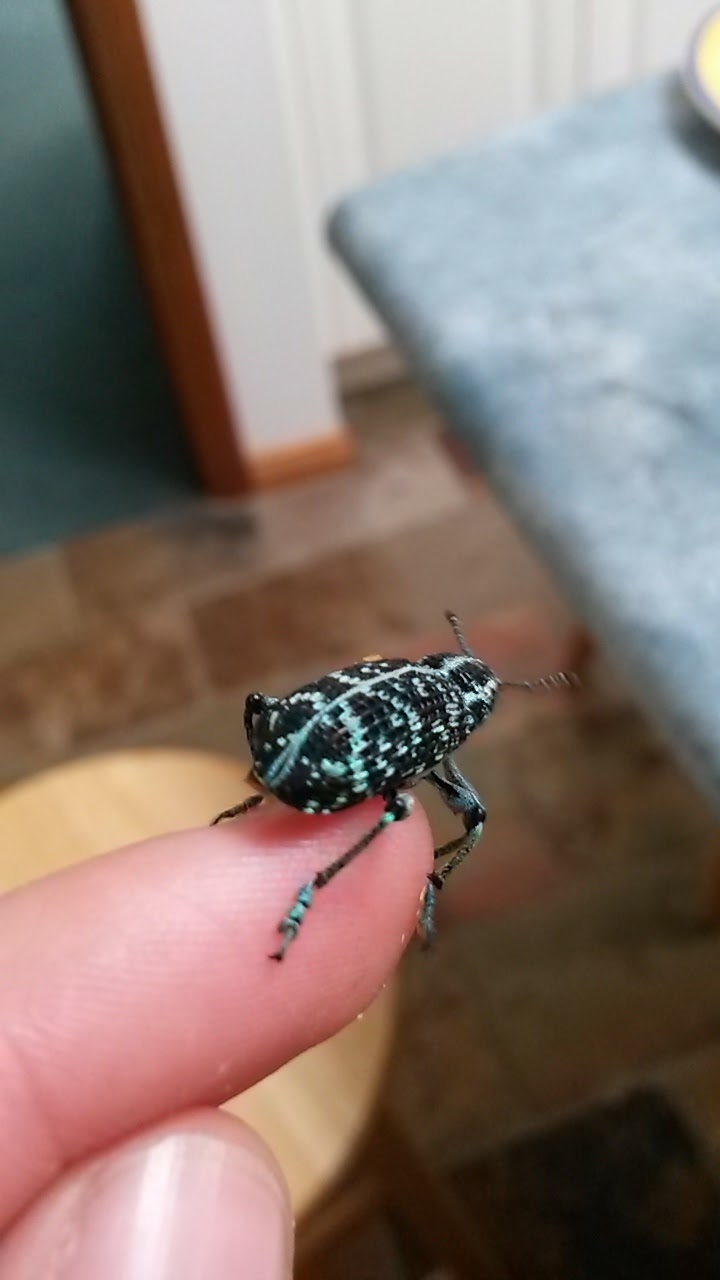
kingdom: Animalia
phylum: Arthropoda
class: Insecta
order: Coleoptera
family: Curculionidae
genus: Chrysolopus
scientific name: Chrysolopus spectabilis
